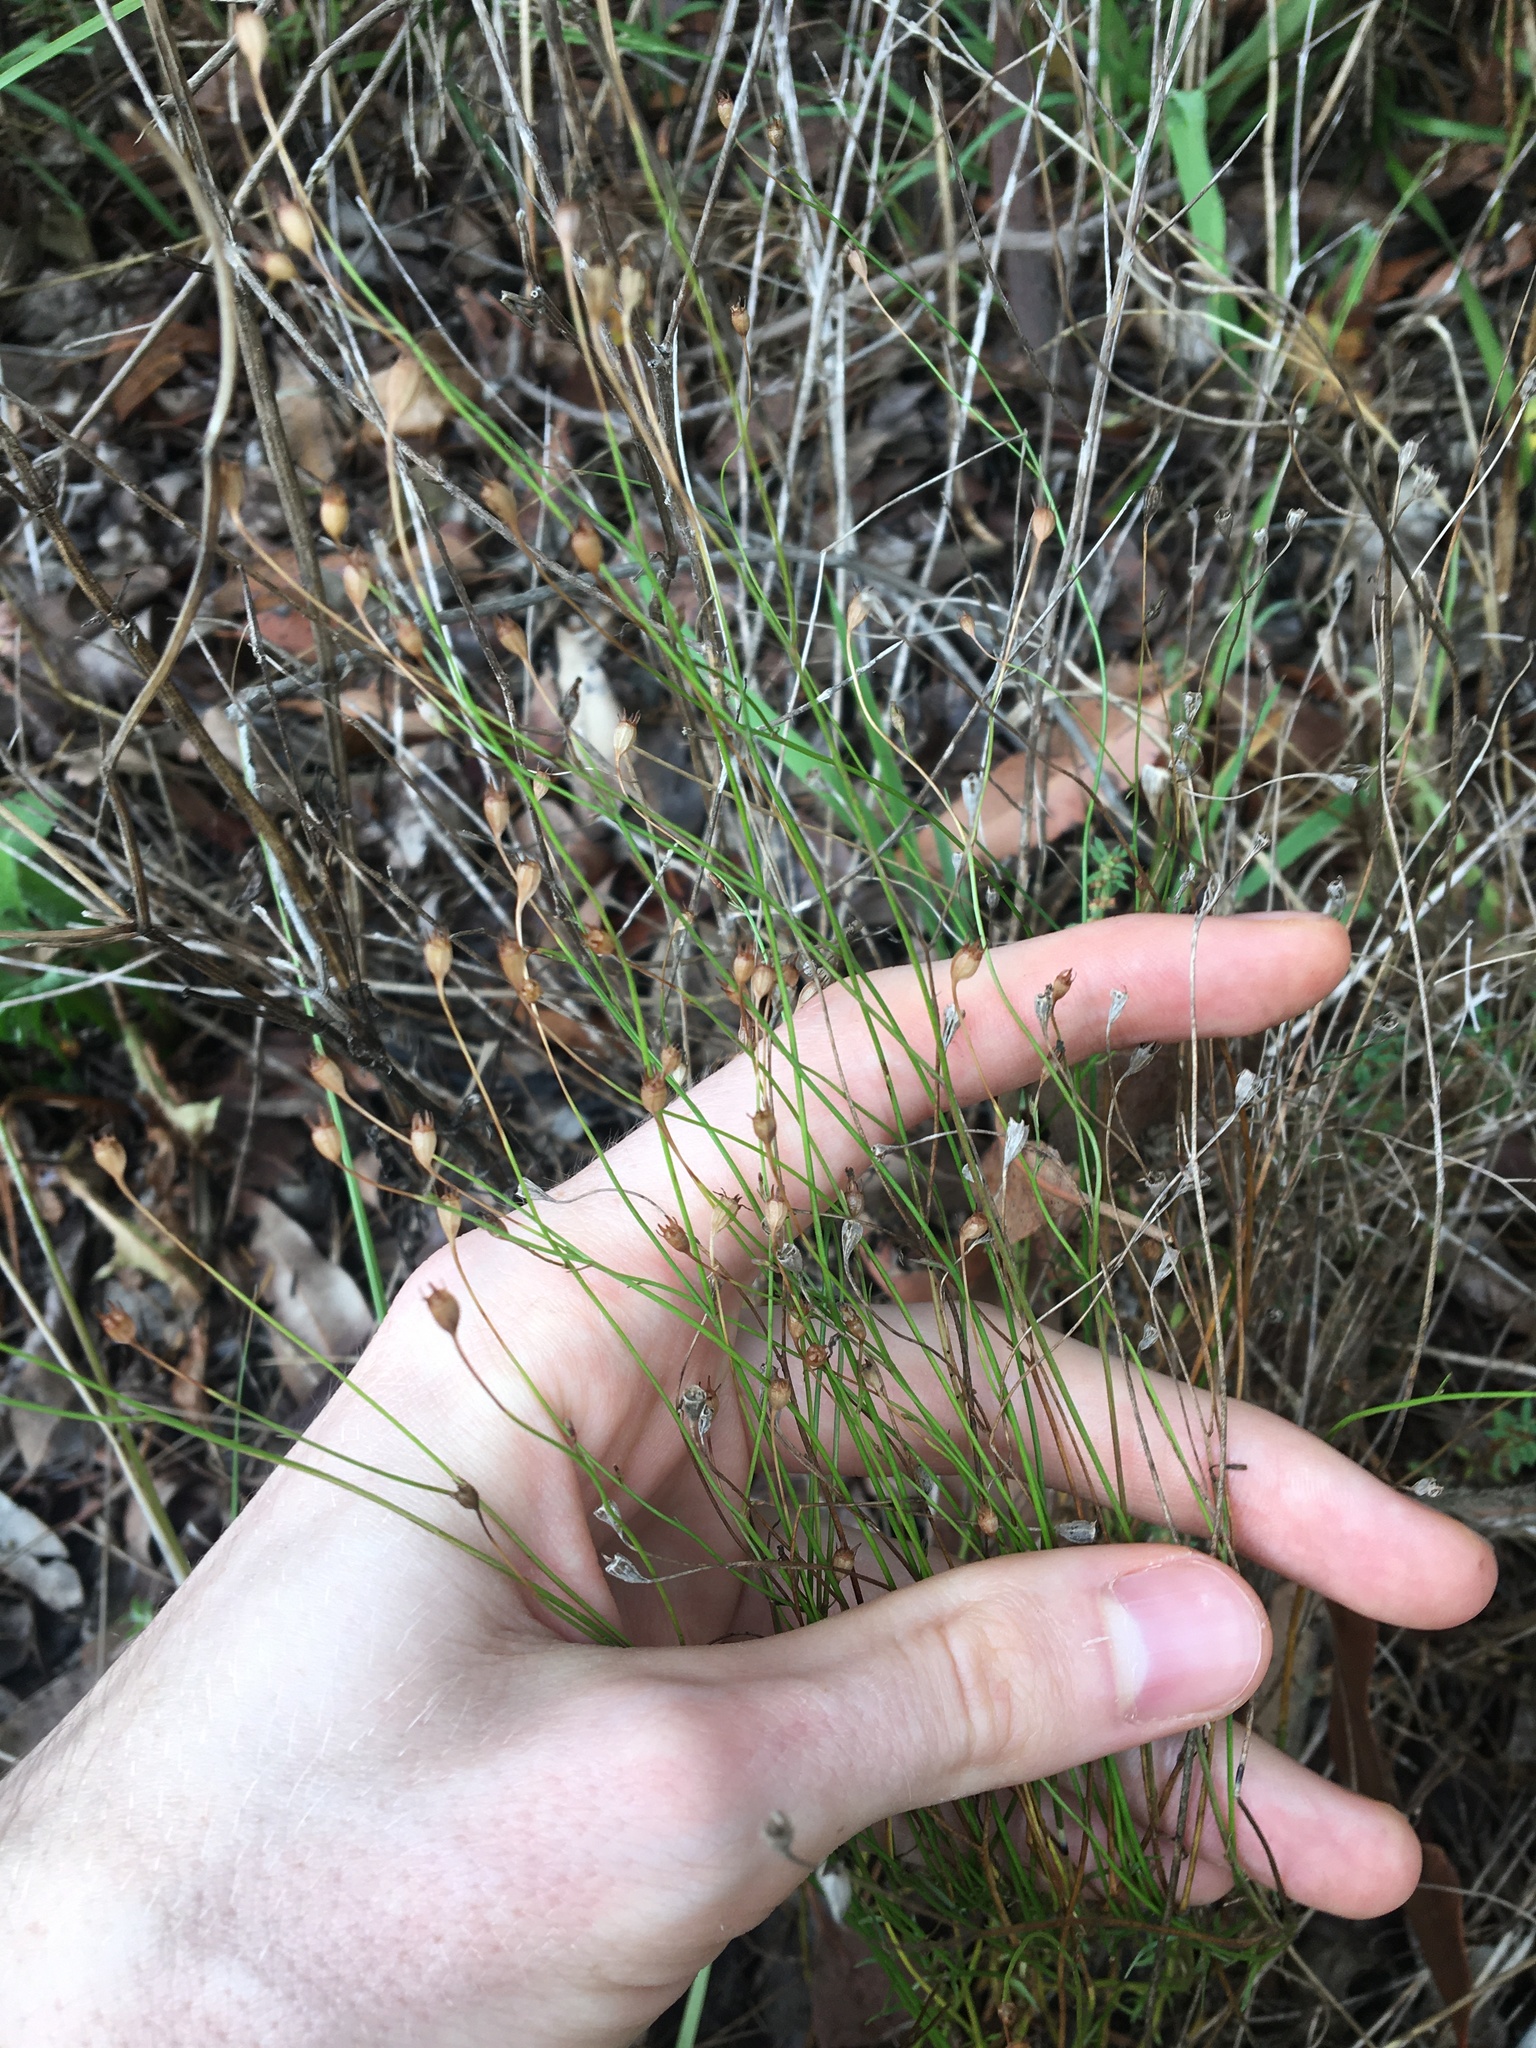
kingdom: Plantae
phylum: Tracheophyta
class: Magnoliopsida
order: Asterales
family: Campanulaceae
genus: Wahlenbergia
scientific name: Wahlenbergia gracilis
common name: Harebell
